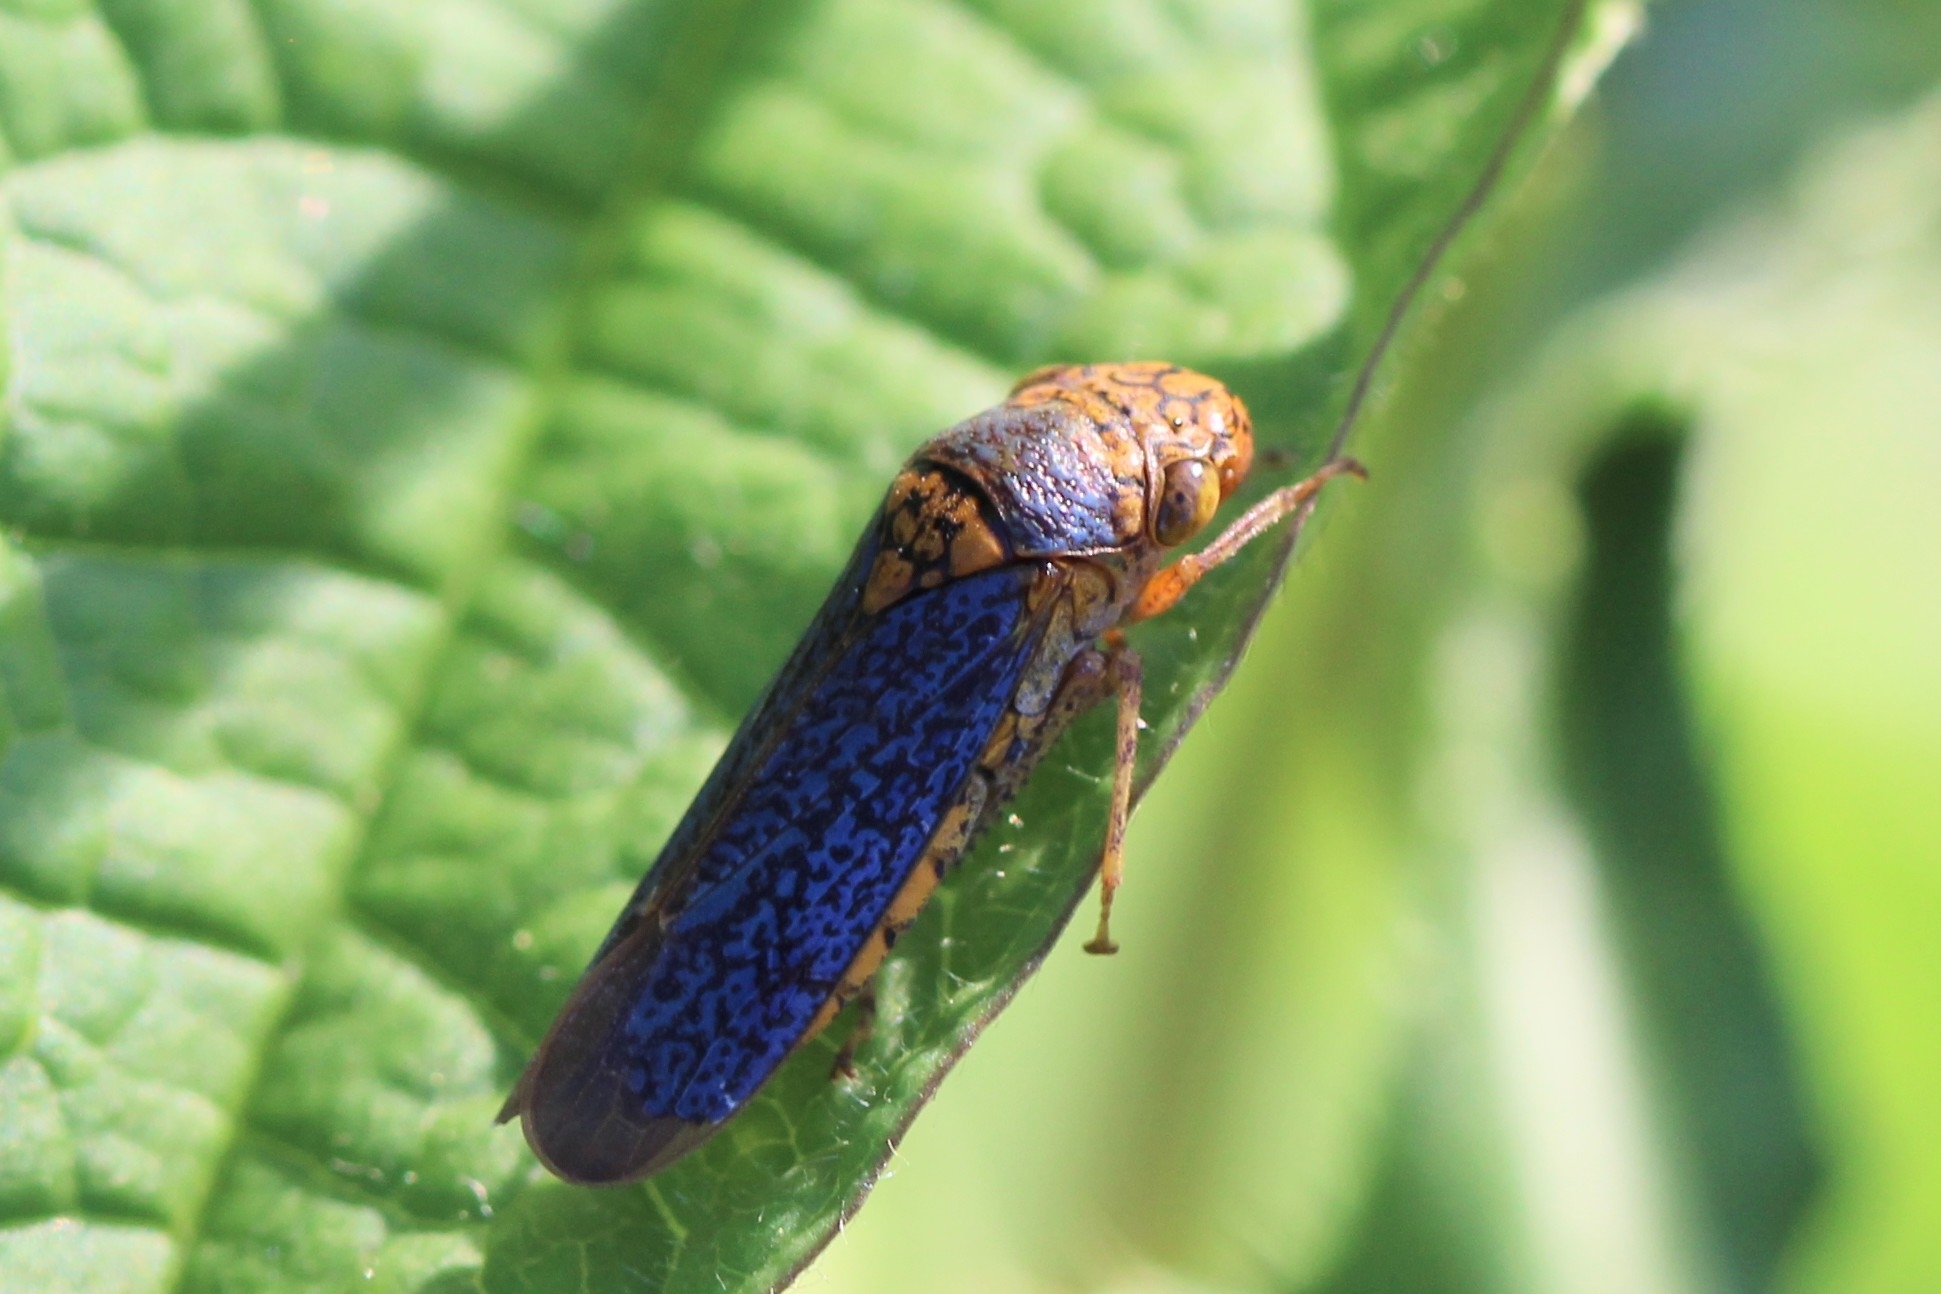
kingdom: Animalia
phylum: Arthropoda
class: Insecta
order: Hemiptera
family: Cicadellidae
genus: Oncometopia
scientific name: Oncometopia orbona
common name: Broad-headed sharpshooter
